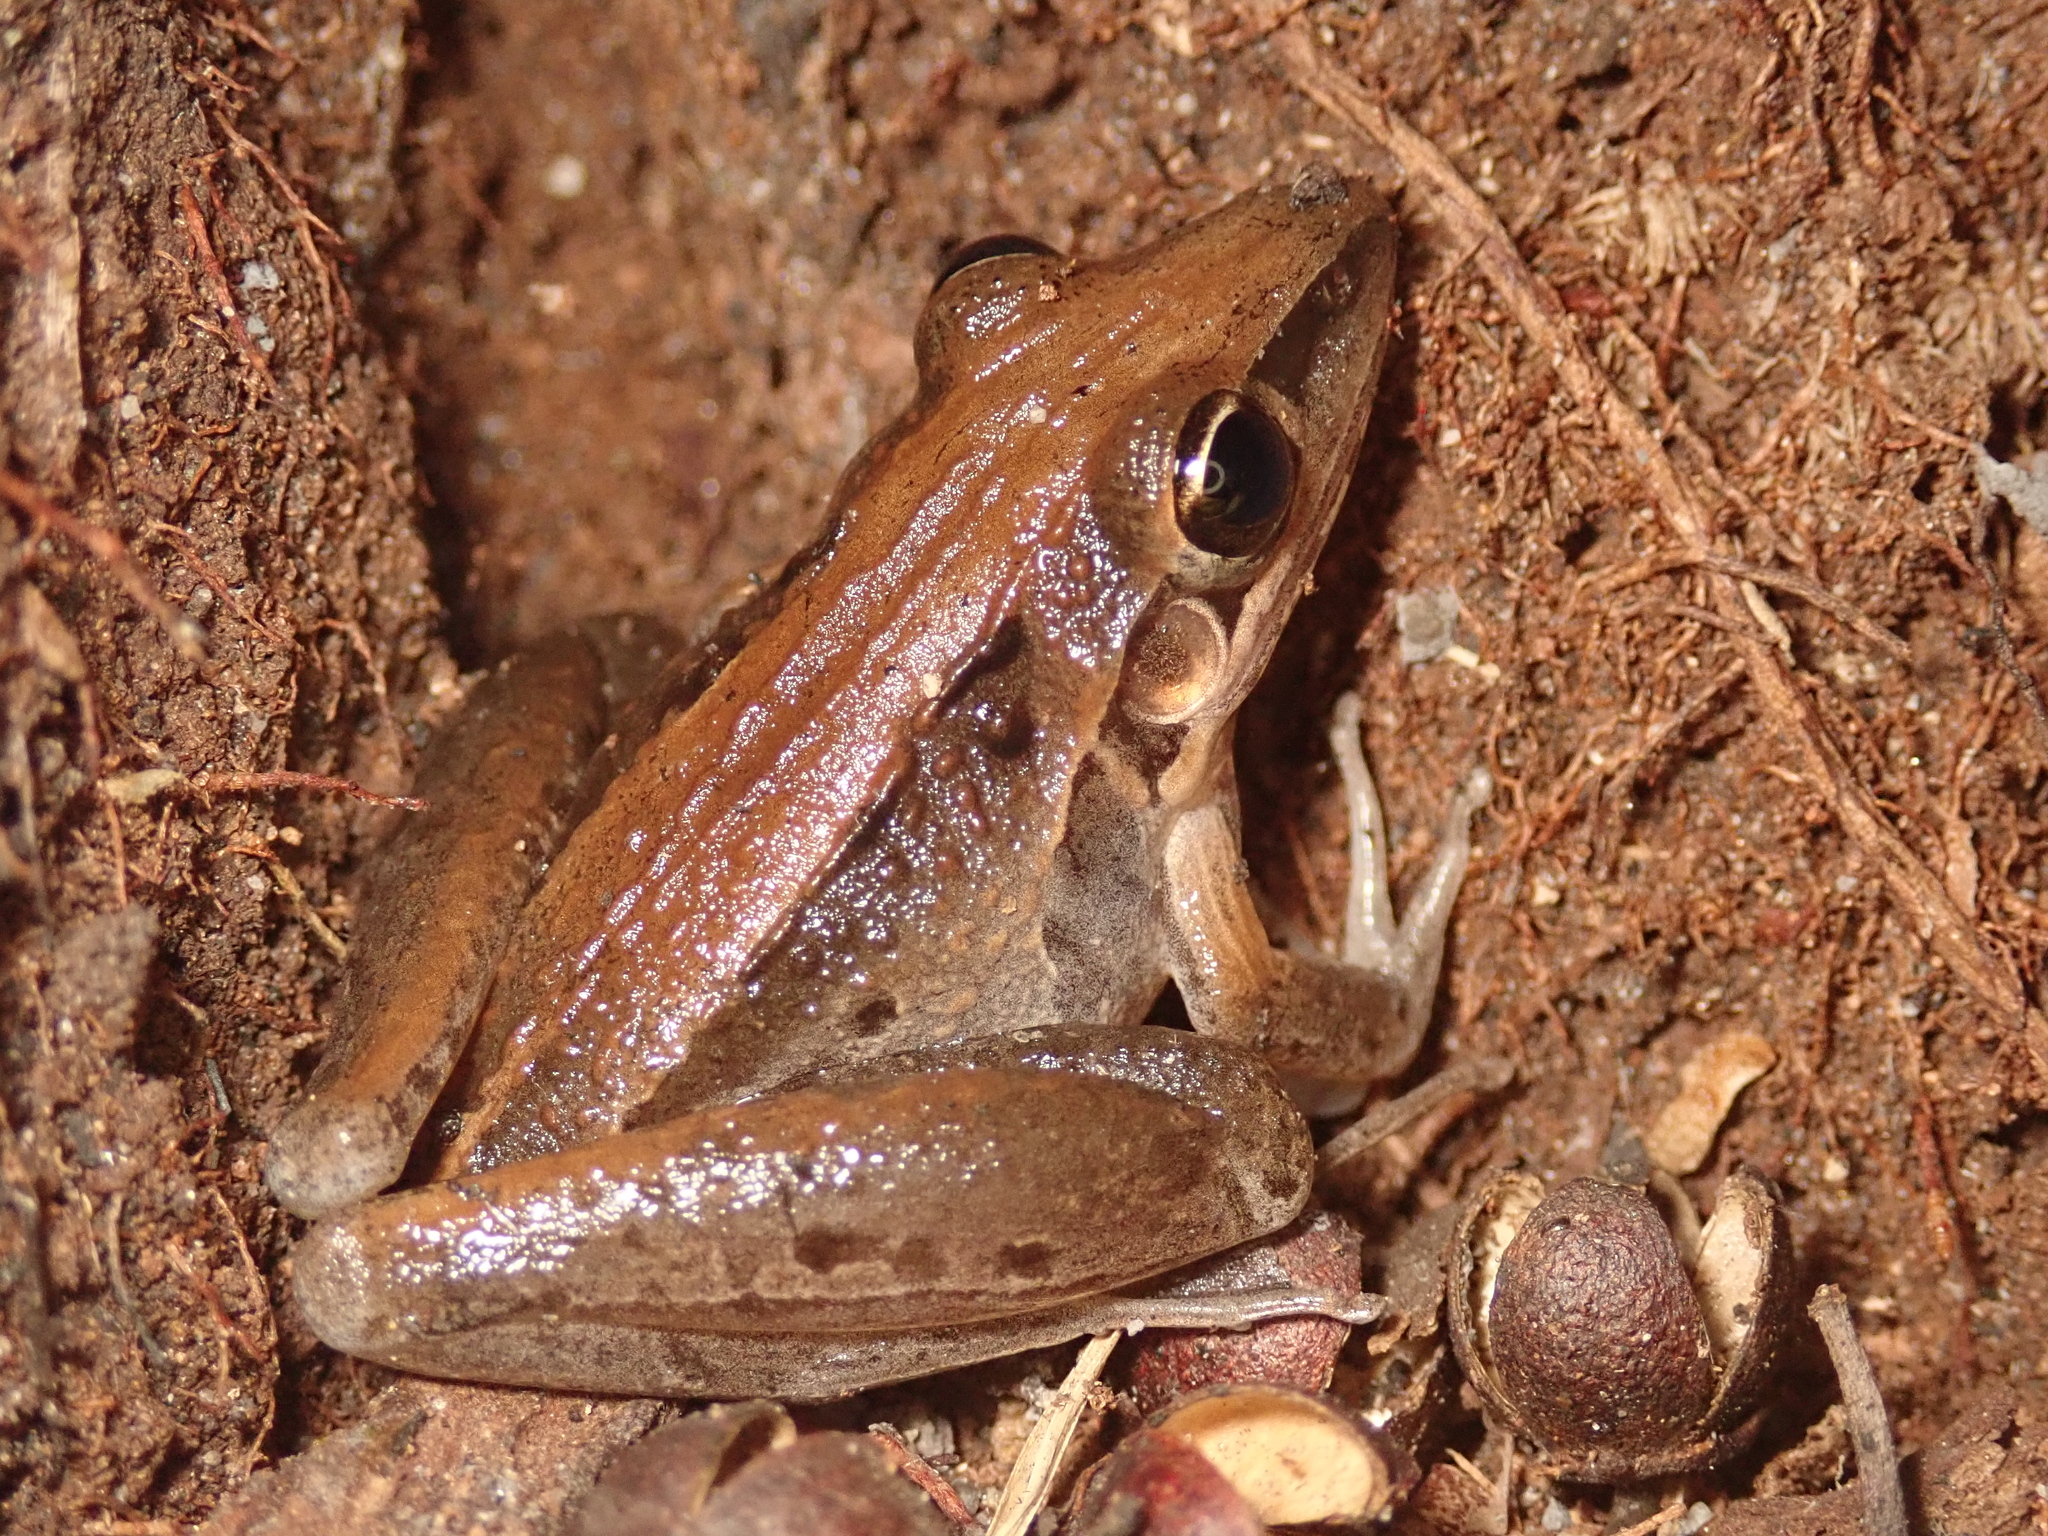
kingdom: Animalia
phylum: Chordata
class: Amphibia
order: Anura
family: Pelodryadidae
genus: Litoria
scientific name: Litoria nasuta
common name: Rocket frog
